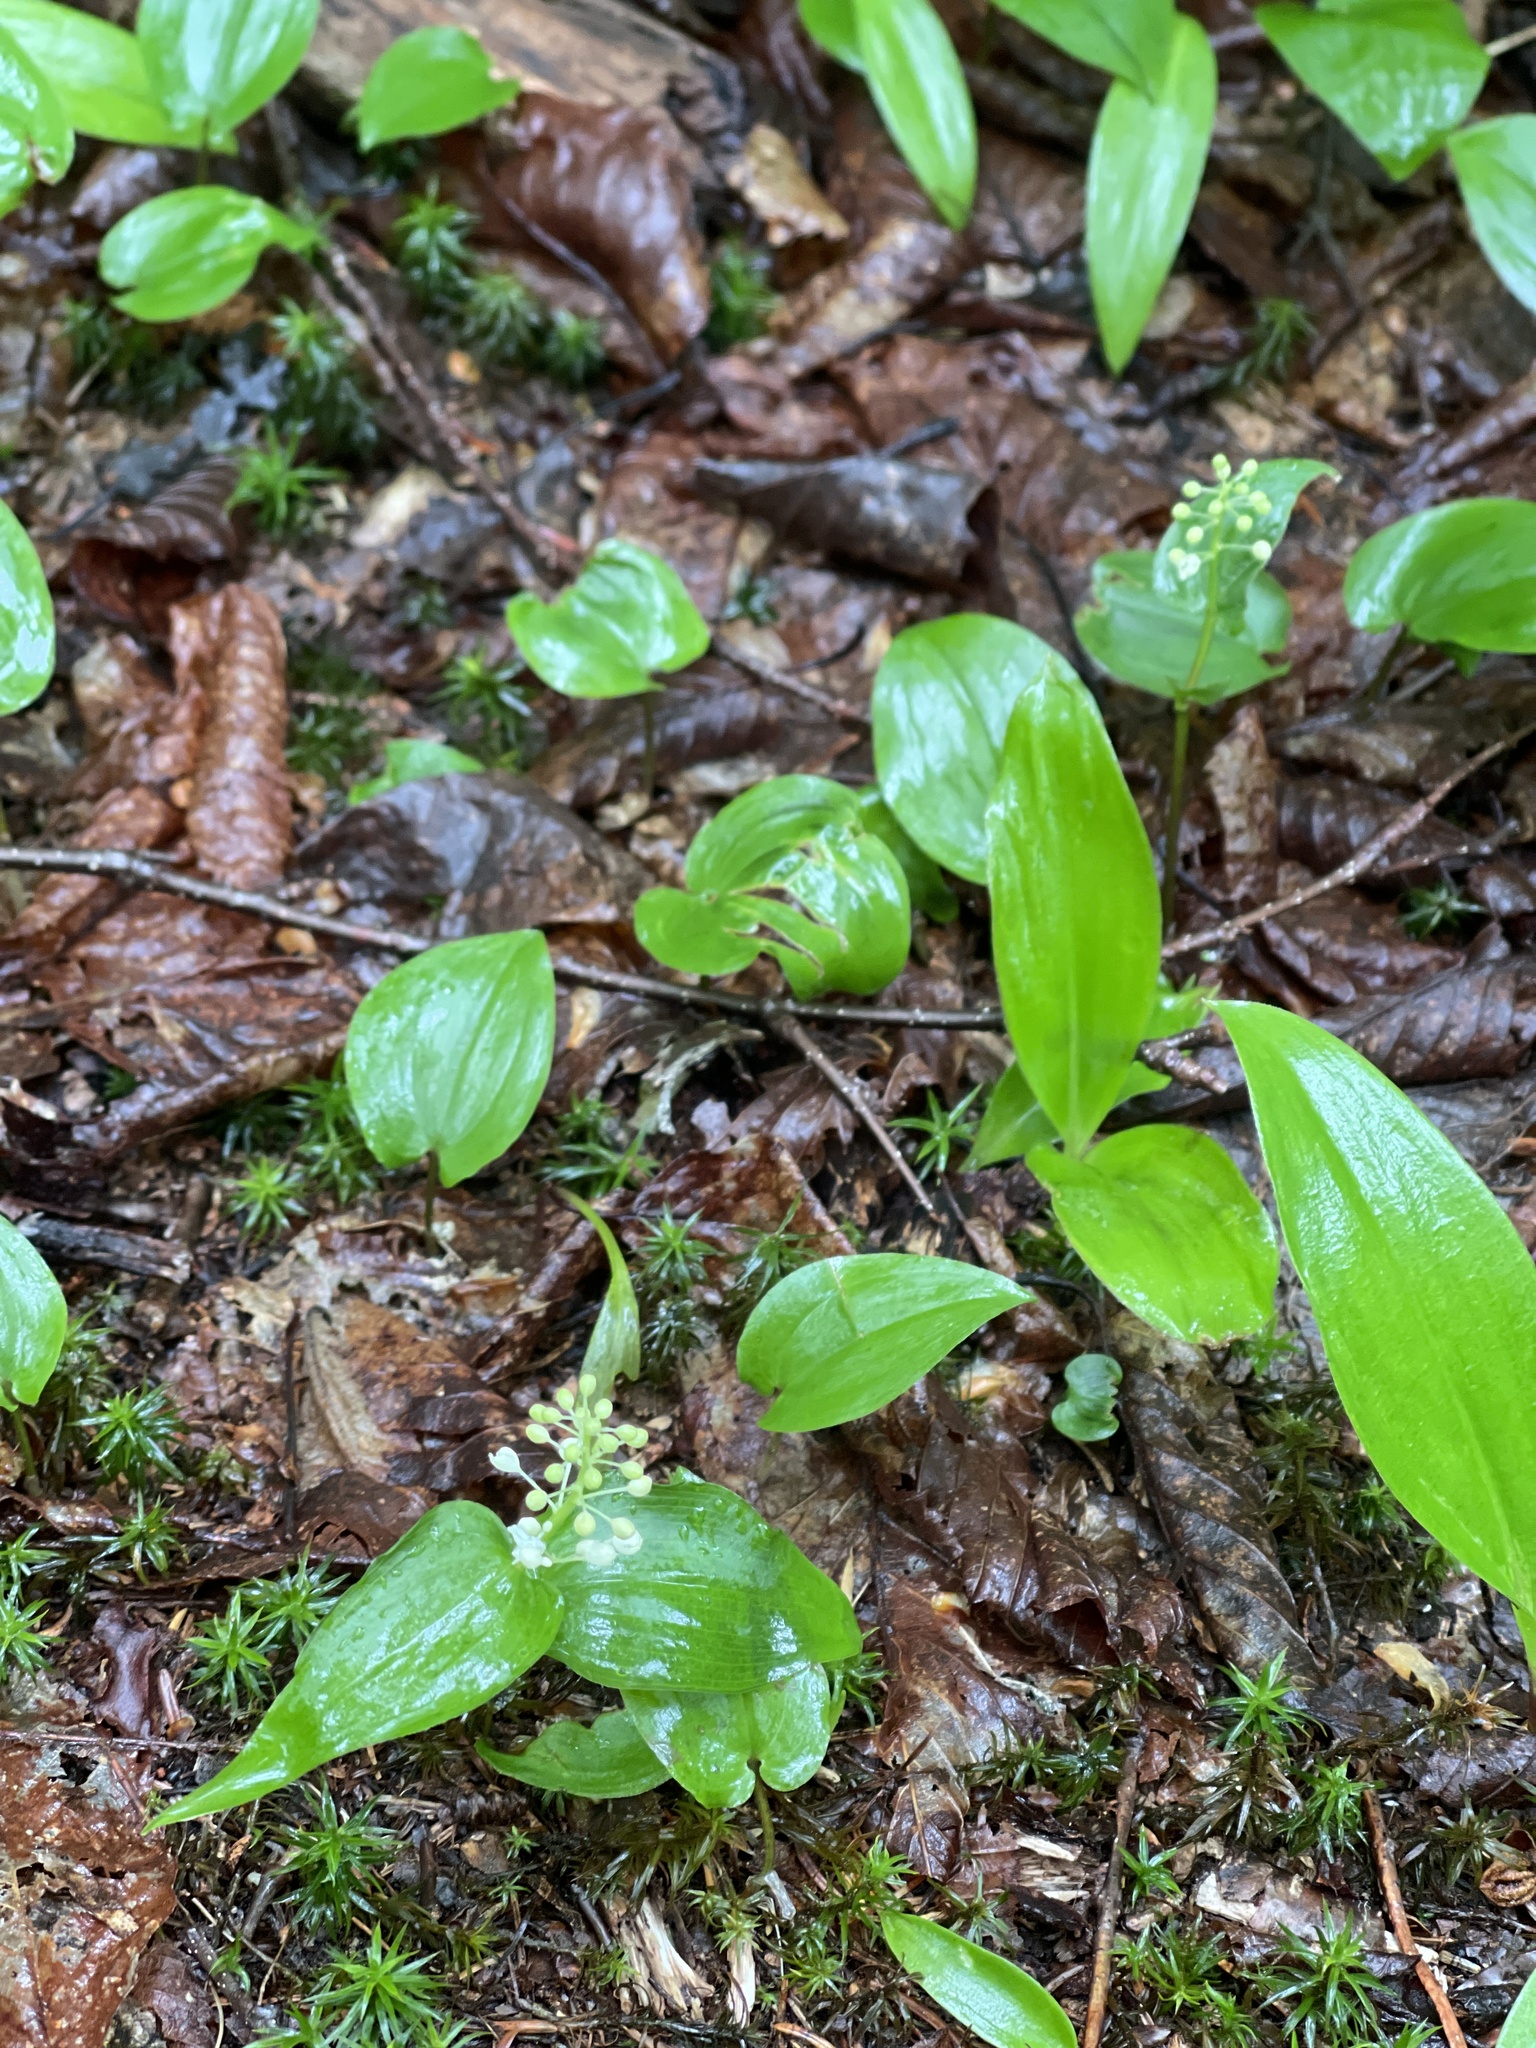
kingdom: Plantae
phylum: Tracheophyta
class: Liliopsida
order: Asparagales
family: Asparagaceae
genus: Maianthemum
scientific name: Maianthemum canadense
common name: False lily-of-the-valley
